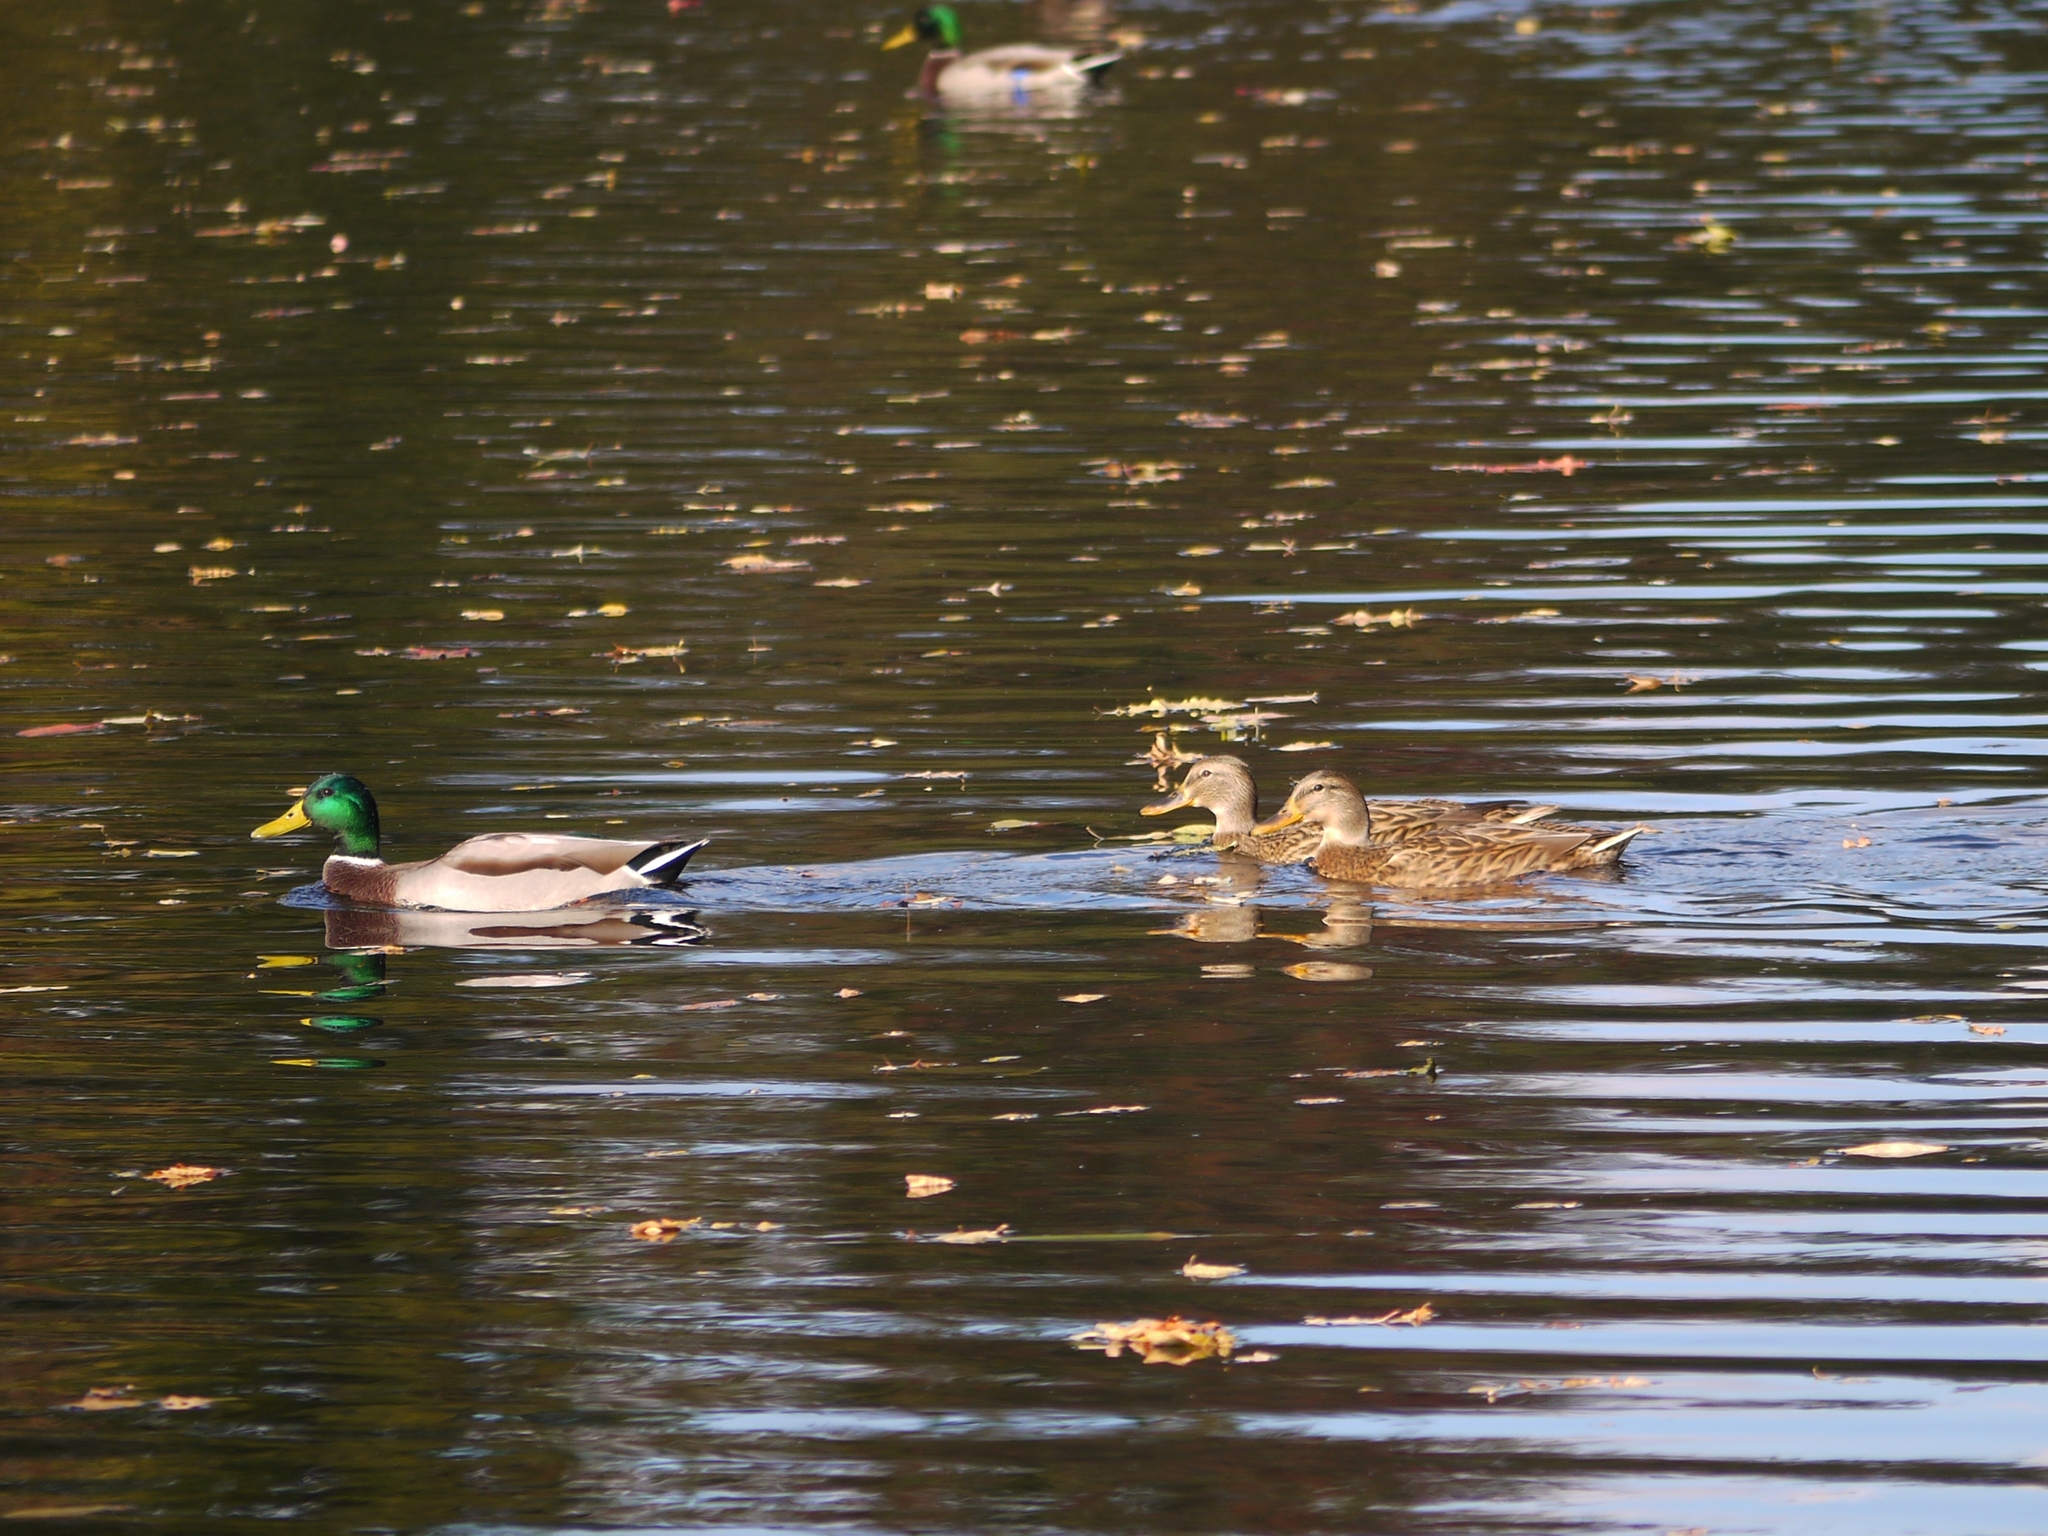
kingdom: Animalia
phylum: Chordata
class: Aves
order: Anseriformes
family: Anatidae
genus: Anas
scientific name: Anas platyrhynchos
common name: Mallard
